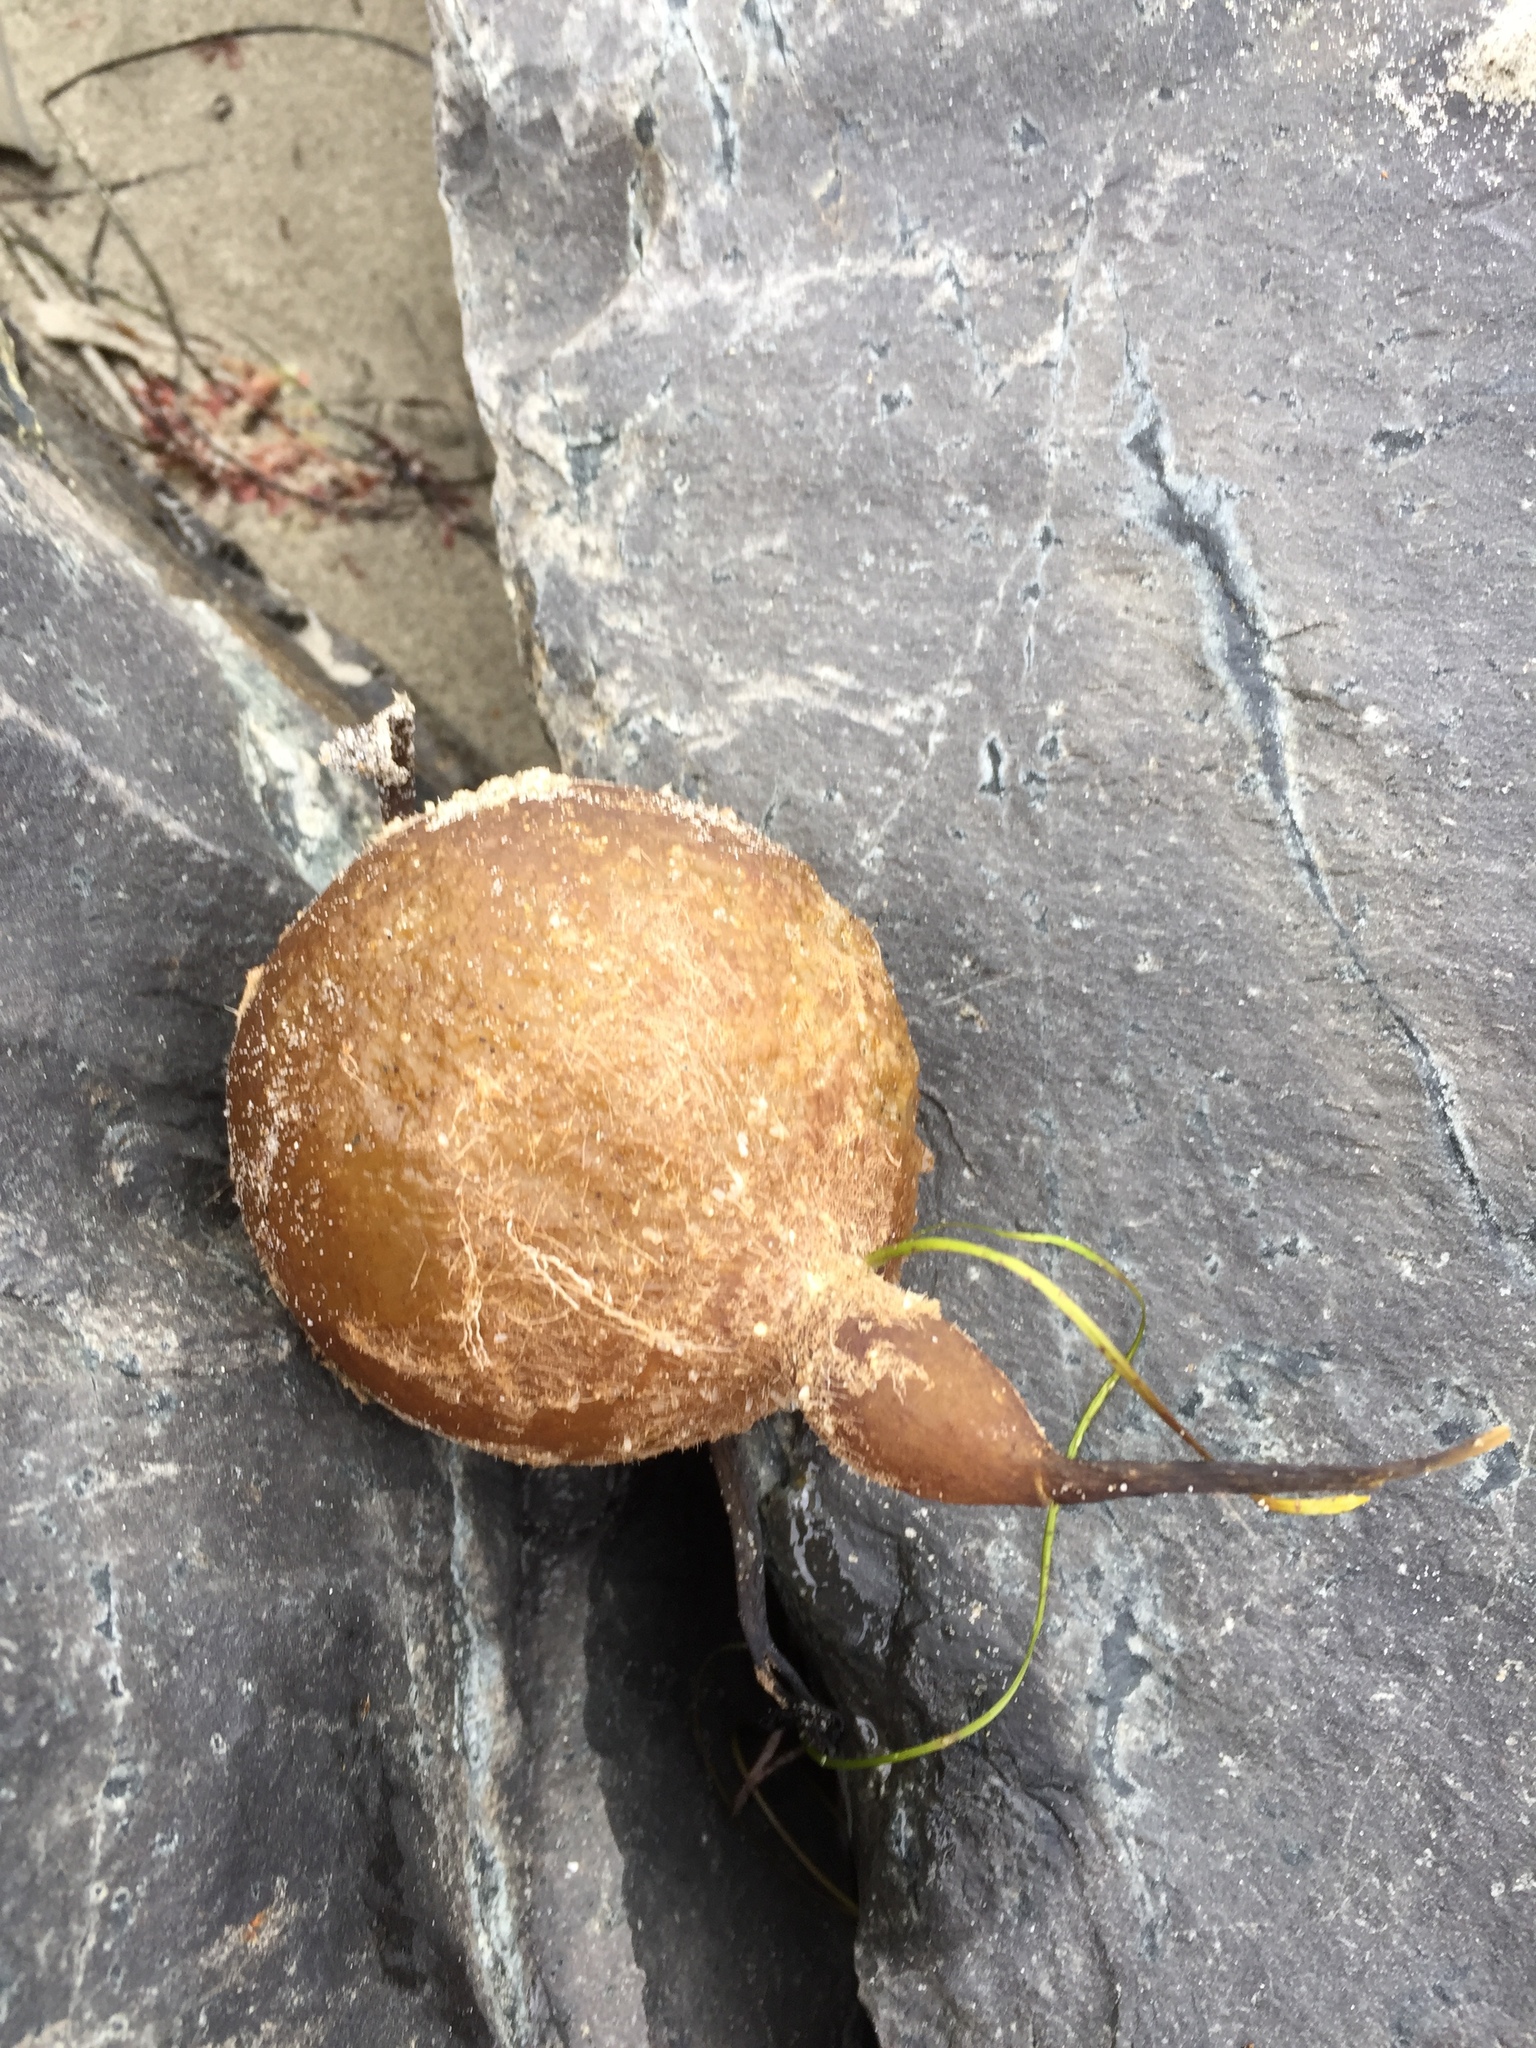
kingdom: Chromista
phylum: Ochrophyta
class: Phaeophyceae
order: Laminariales
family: Laminariaceae
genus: Pelagophycus
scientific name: Pelagophycus porra
